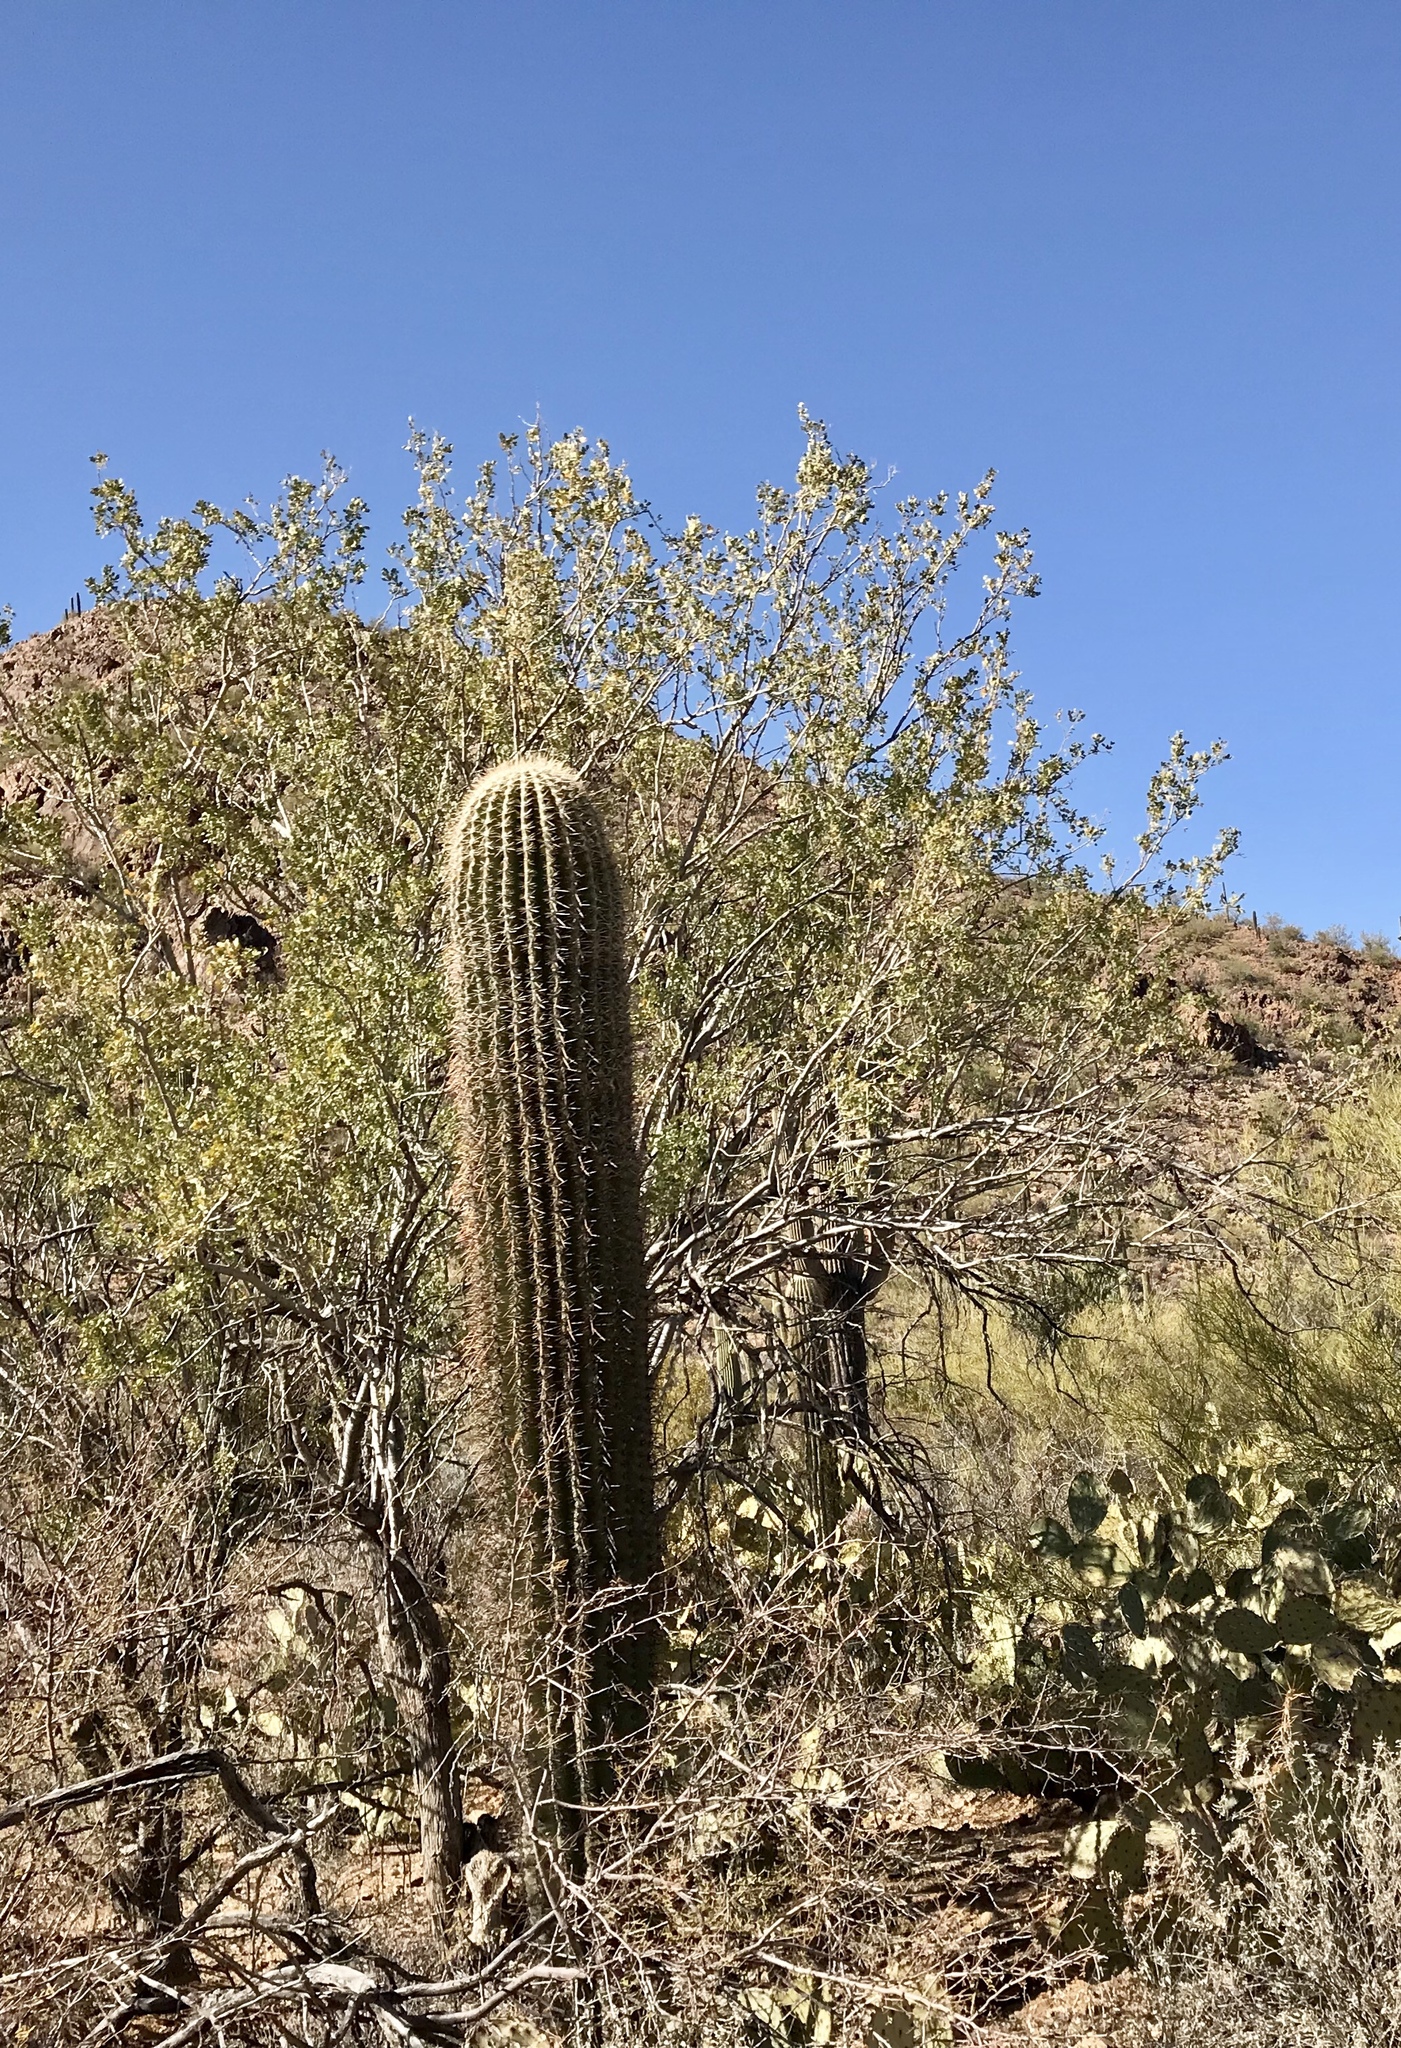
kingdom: Plantae
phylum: Tracheophyta
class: Magnoliopsida
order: Caryophyllales
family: Cactaceae
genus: Carnegiea
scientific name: Carnegiea gigantea
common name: Saguaro
